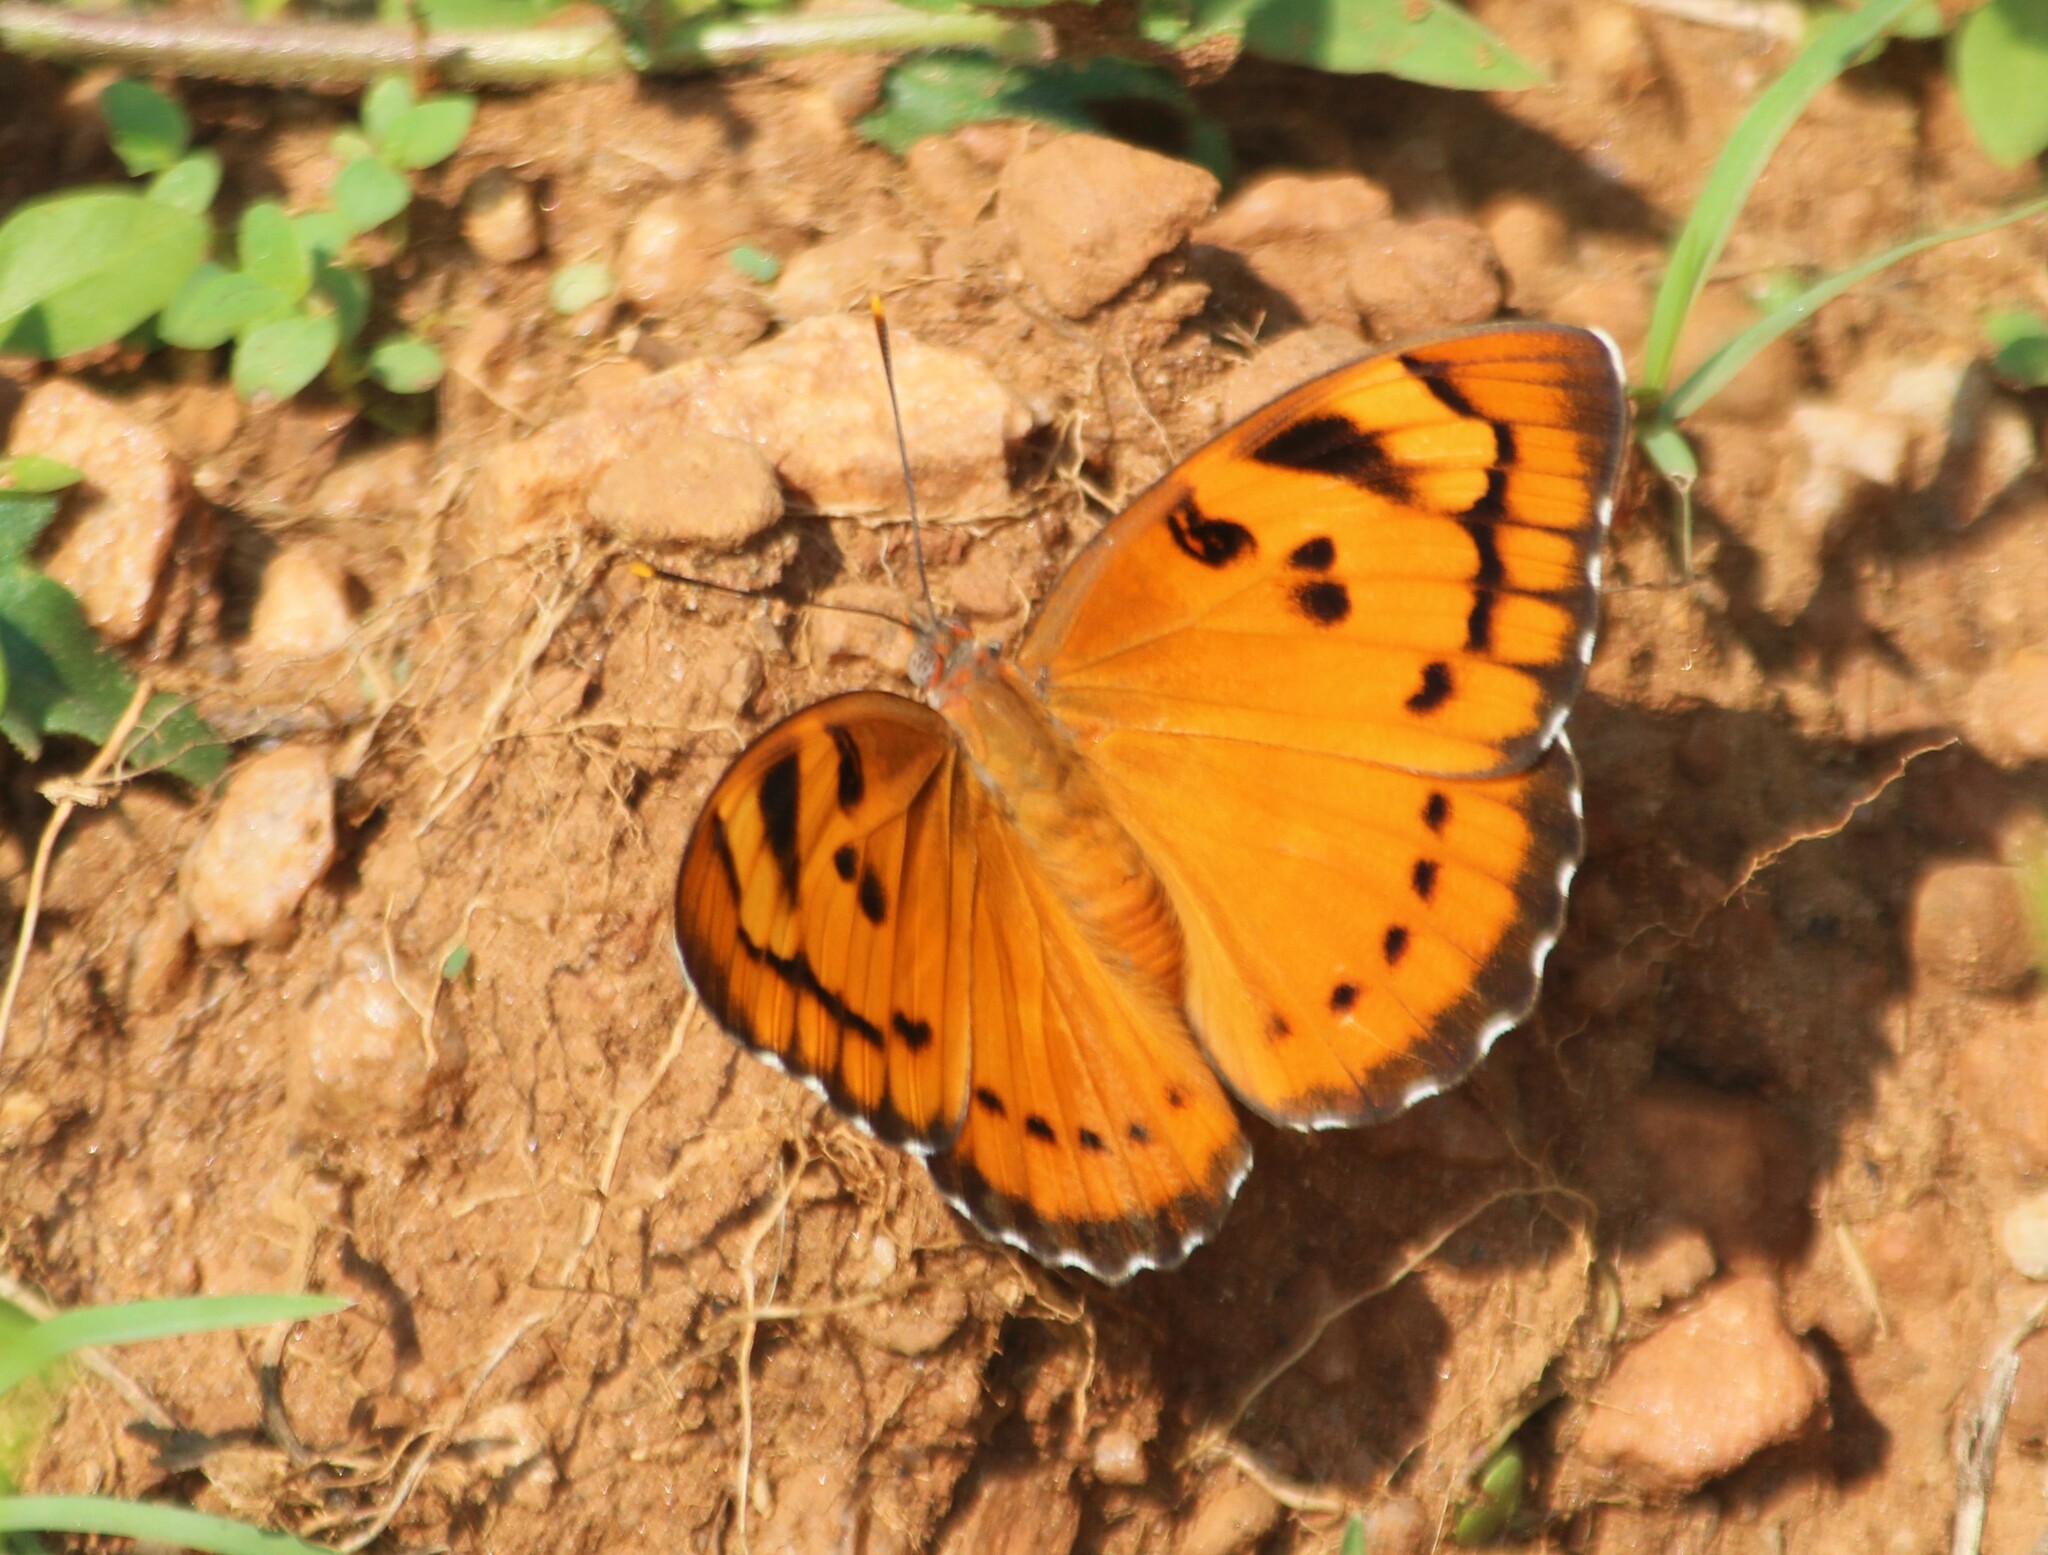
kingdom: Animalia
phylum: Arthropoda
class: Insecta
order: Lepidoptera
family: Nymphalidae
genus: Euthalia
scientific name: Euthalia nais
